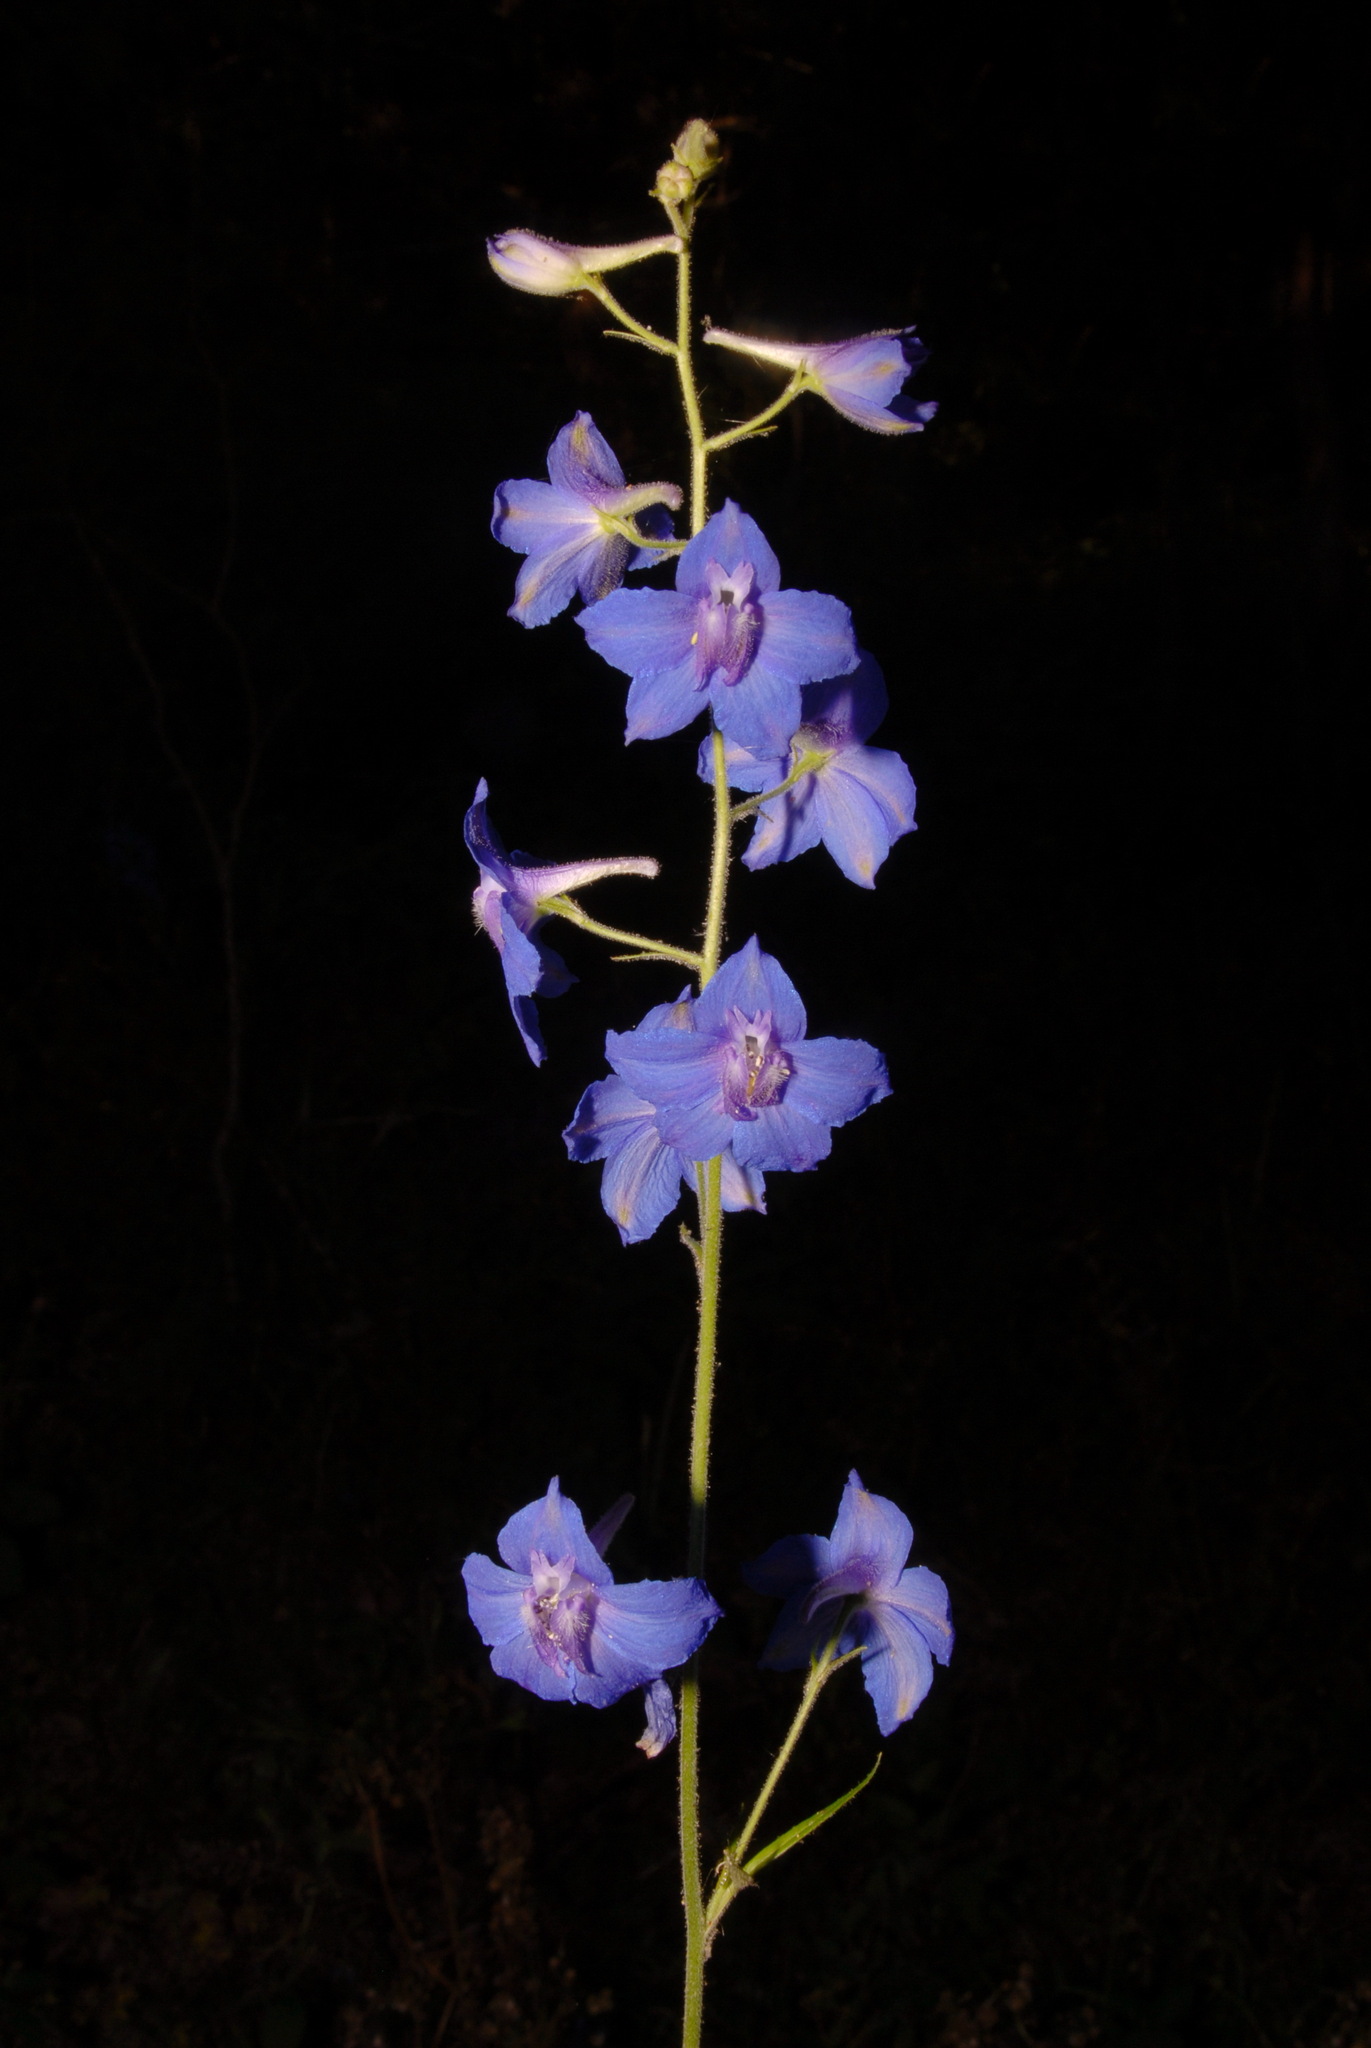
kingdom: Plantae
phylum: Tracheophyta
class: Magnoliopsida
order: Ranunculales
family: Ranunculaceae
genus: Delphinium
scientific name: Delphinium alabamicum
